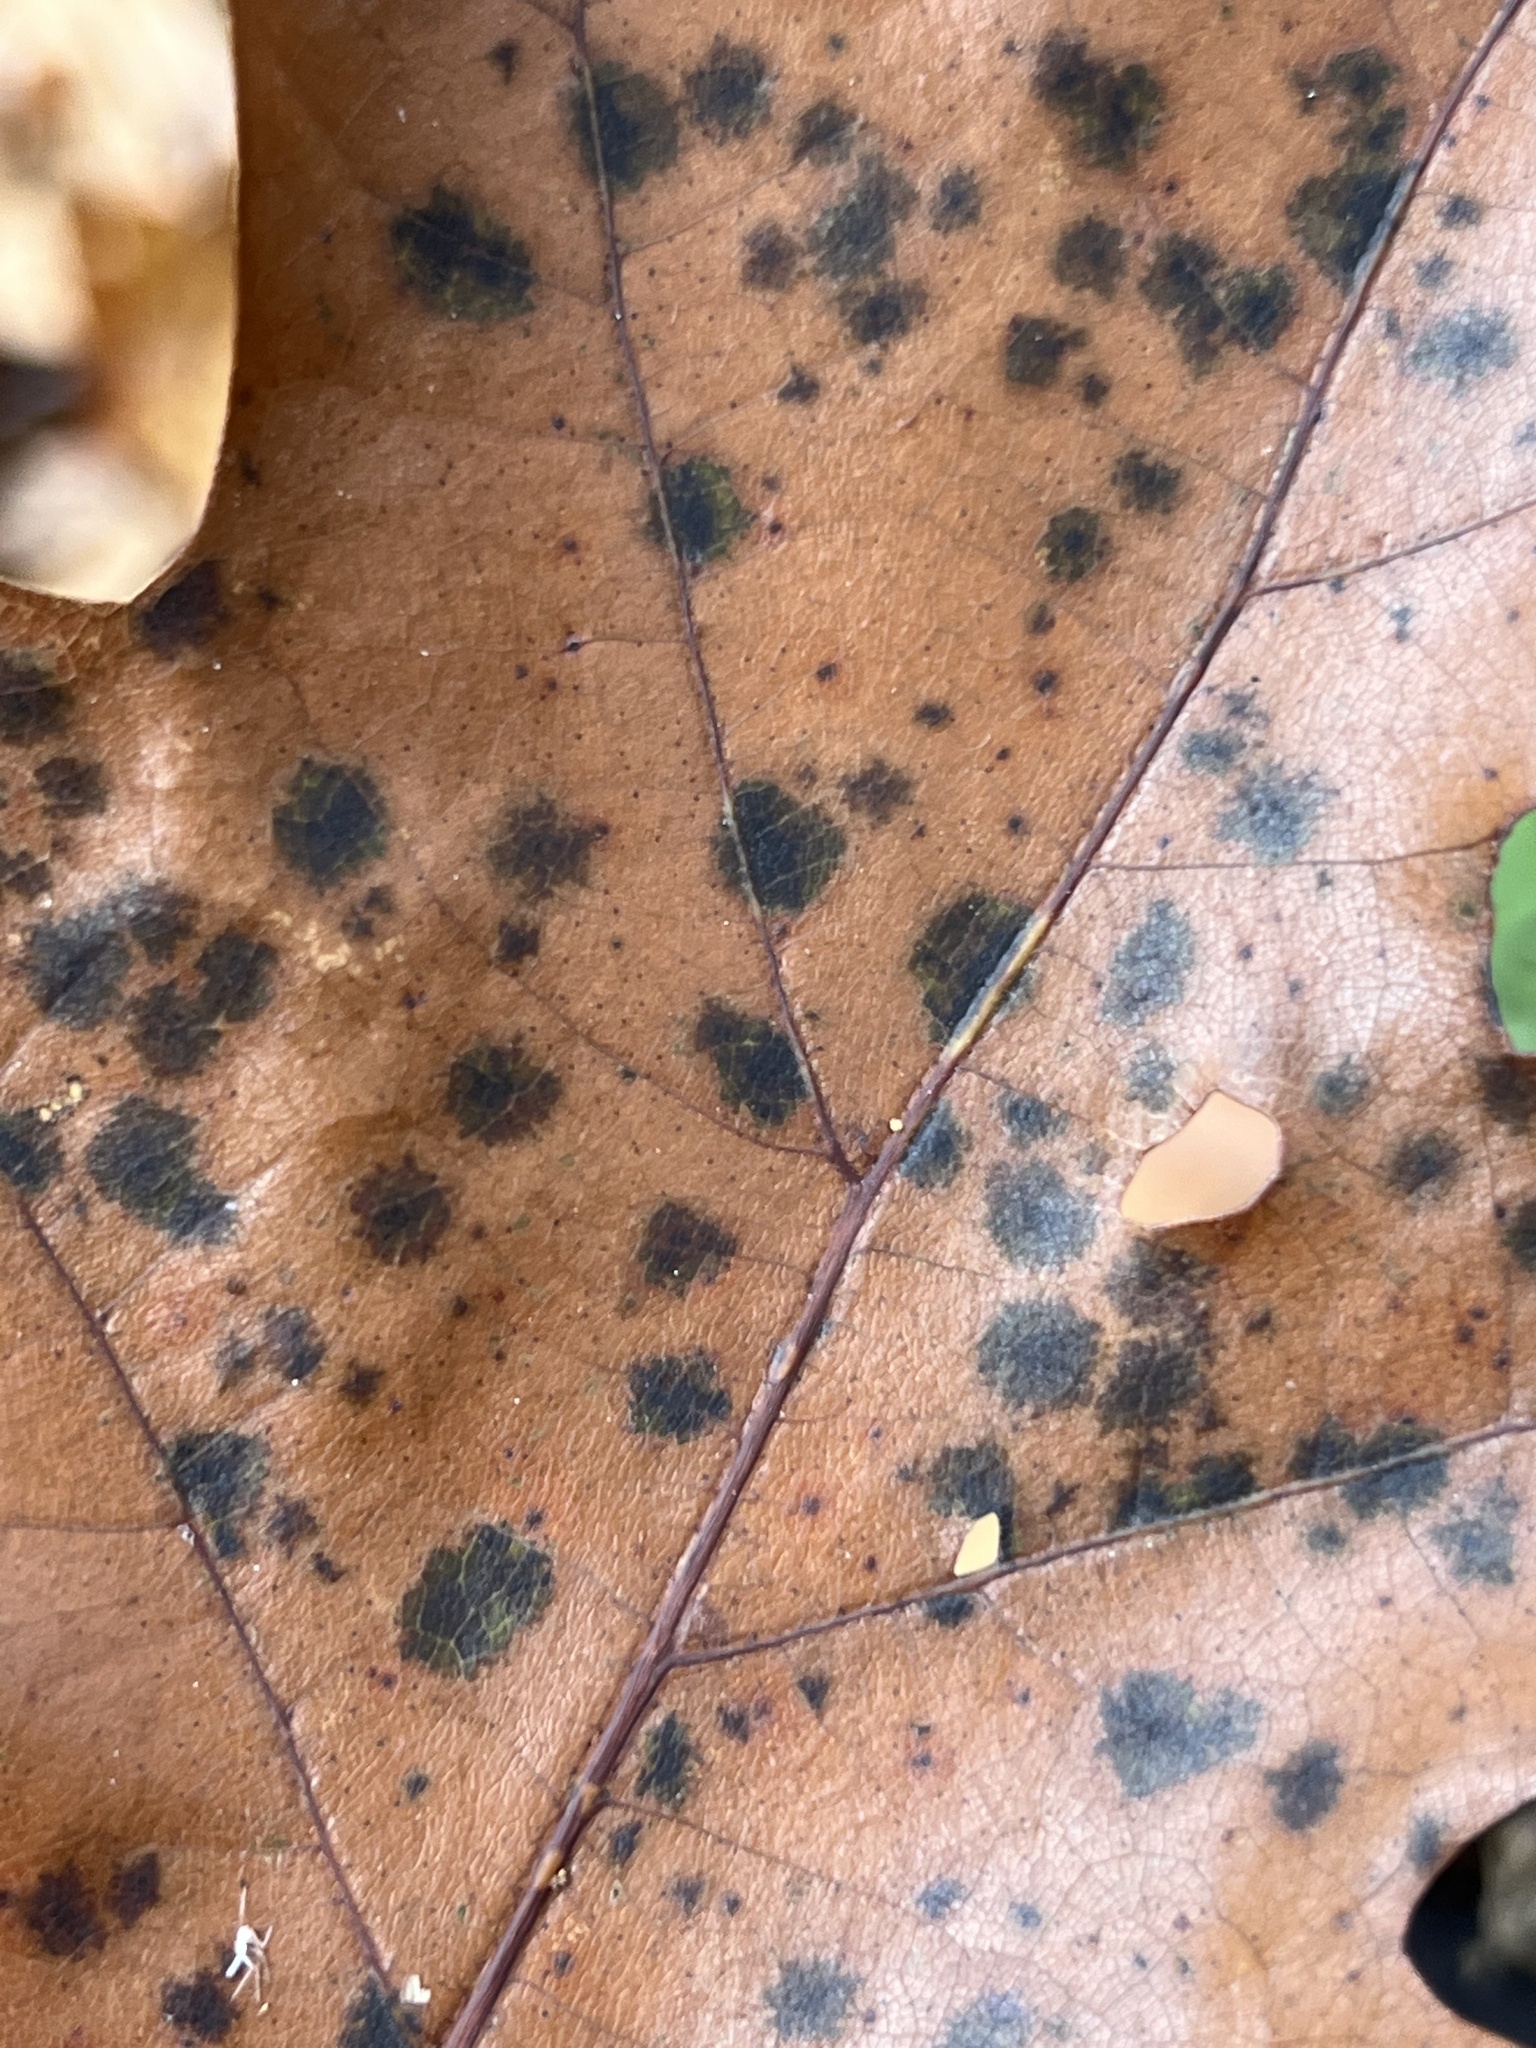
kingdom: Fungi
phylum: Ascomycota
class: Sordariomycetes
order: Diaporthales
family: Melanconidaceae
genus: Dicarpella
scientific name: Dicarpella dryina
